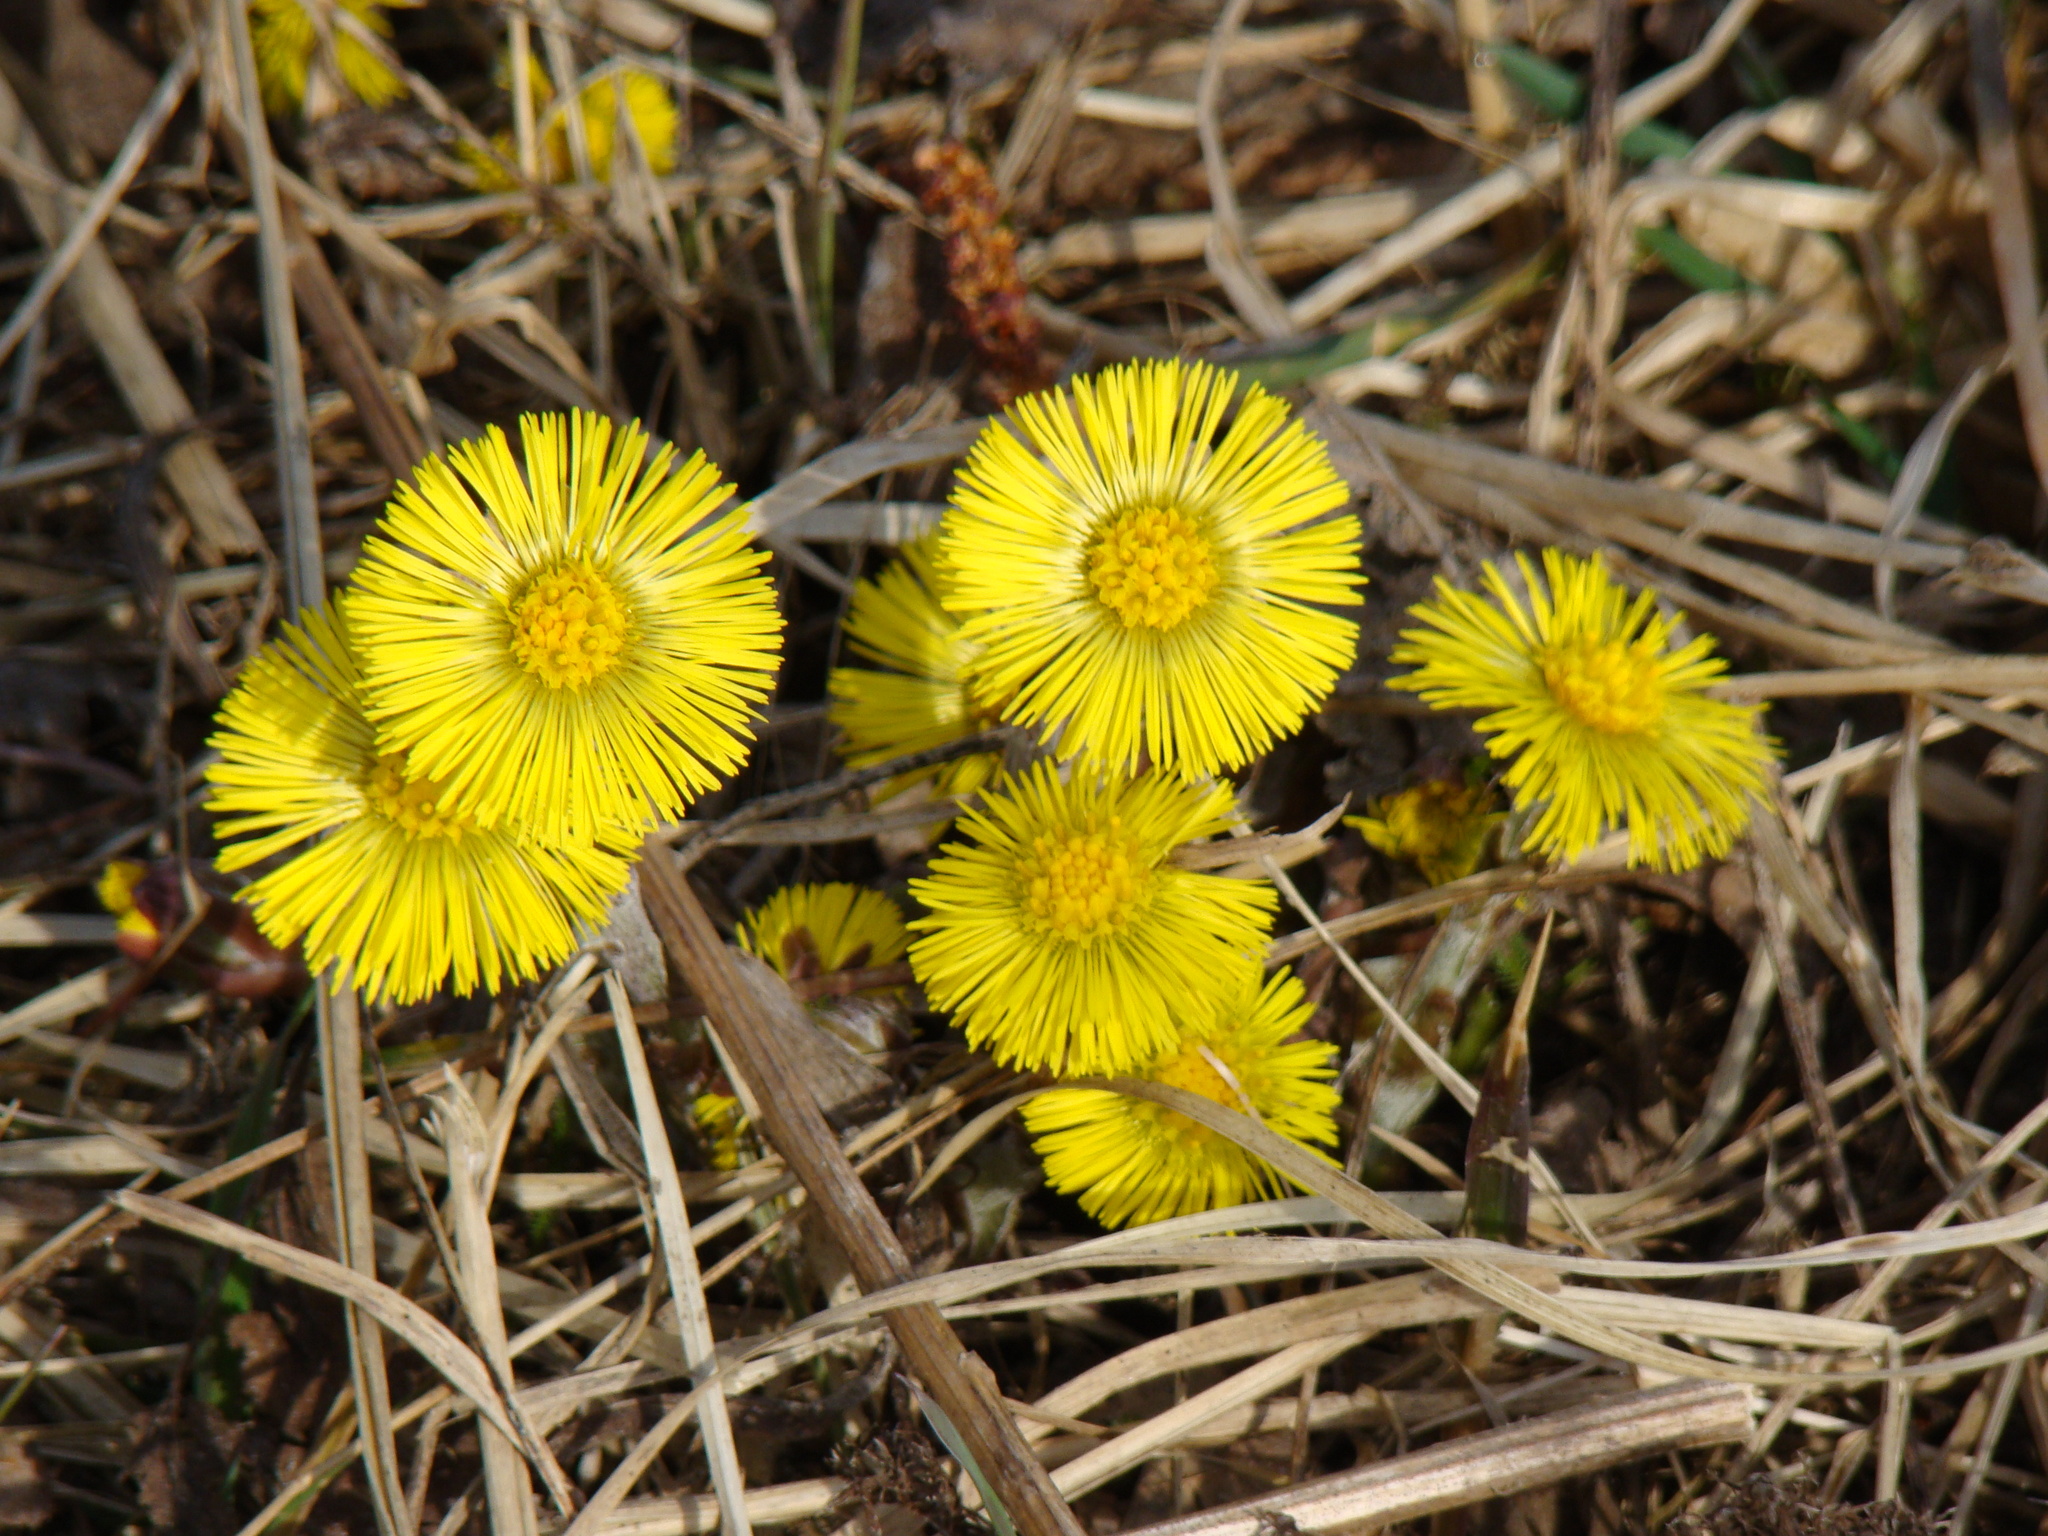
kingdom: Plantae
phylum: Tracheophyta
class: Magnoliopsida
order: Asterales
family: Asteraceae
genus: Tussilago
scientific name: Tussilago farfara
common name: Coltsfoot
